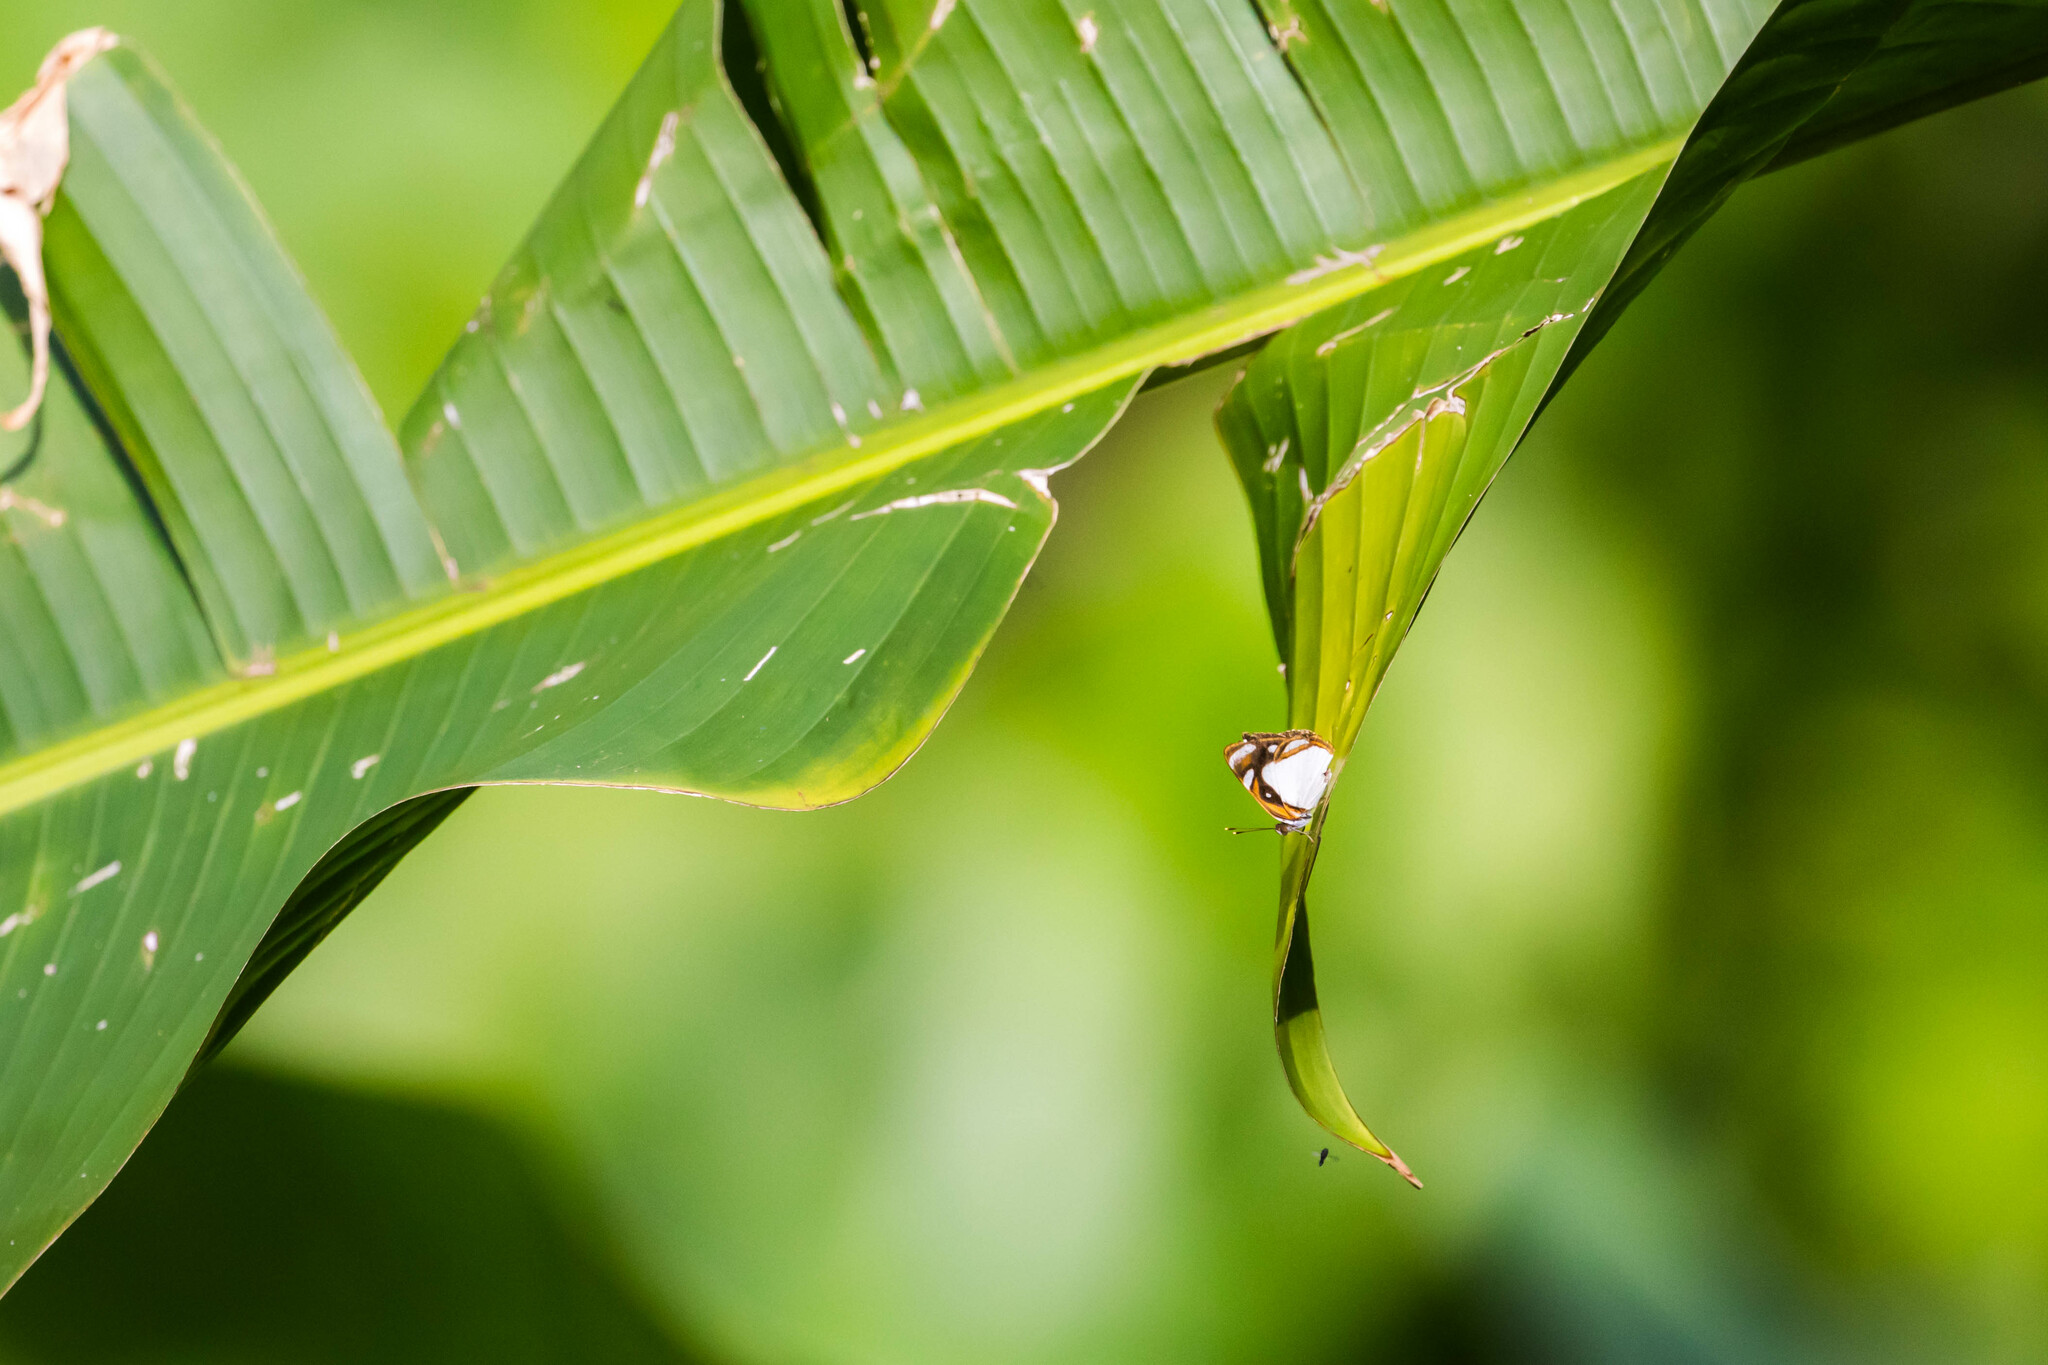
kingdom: Animalia
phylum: Arthropoda
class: Insecta
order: Lepidoptera
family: Nymphalidae
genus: Dynamine
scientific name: Dynamine theseus
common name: White sailor
